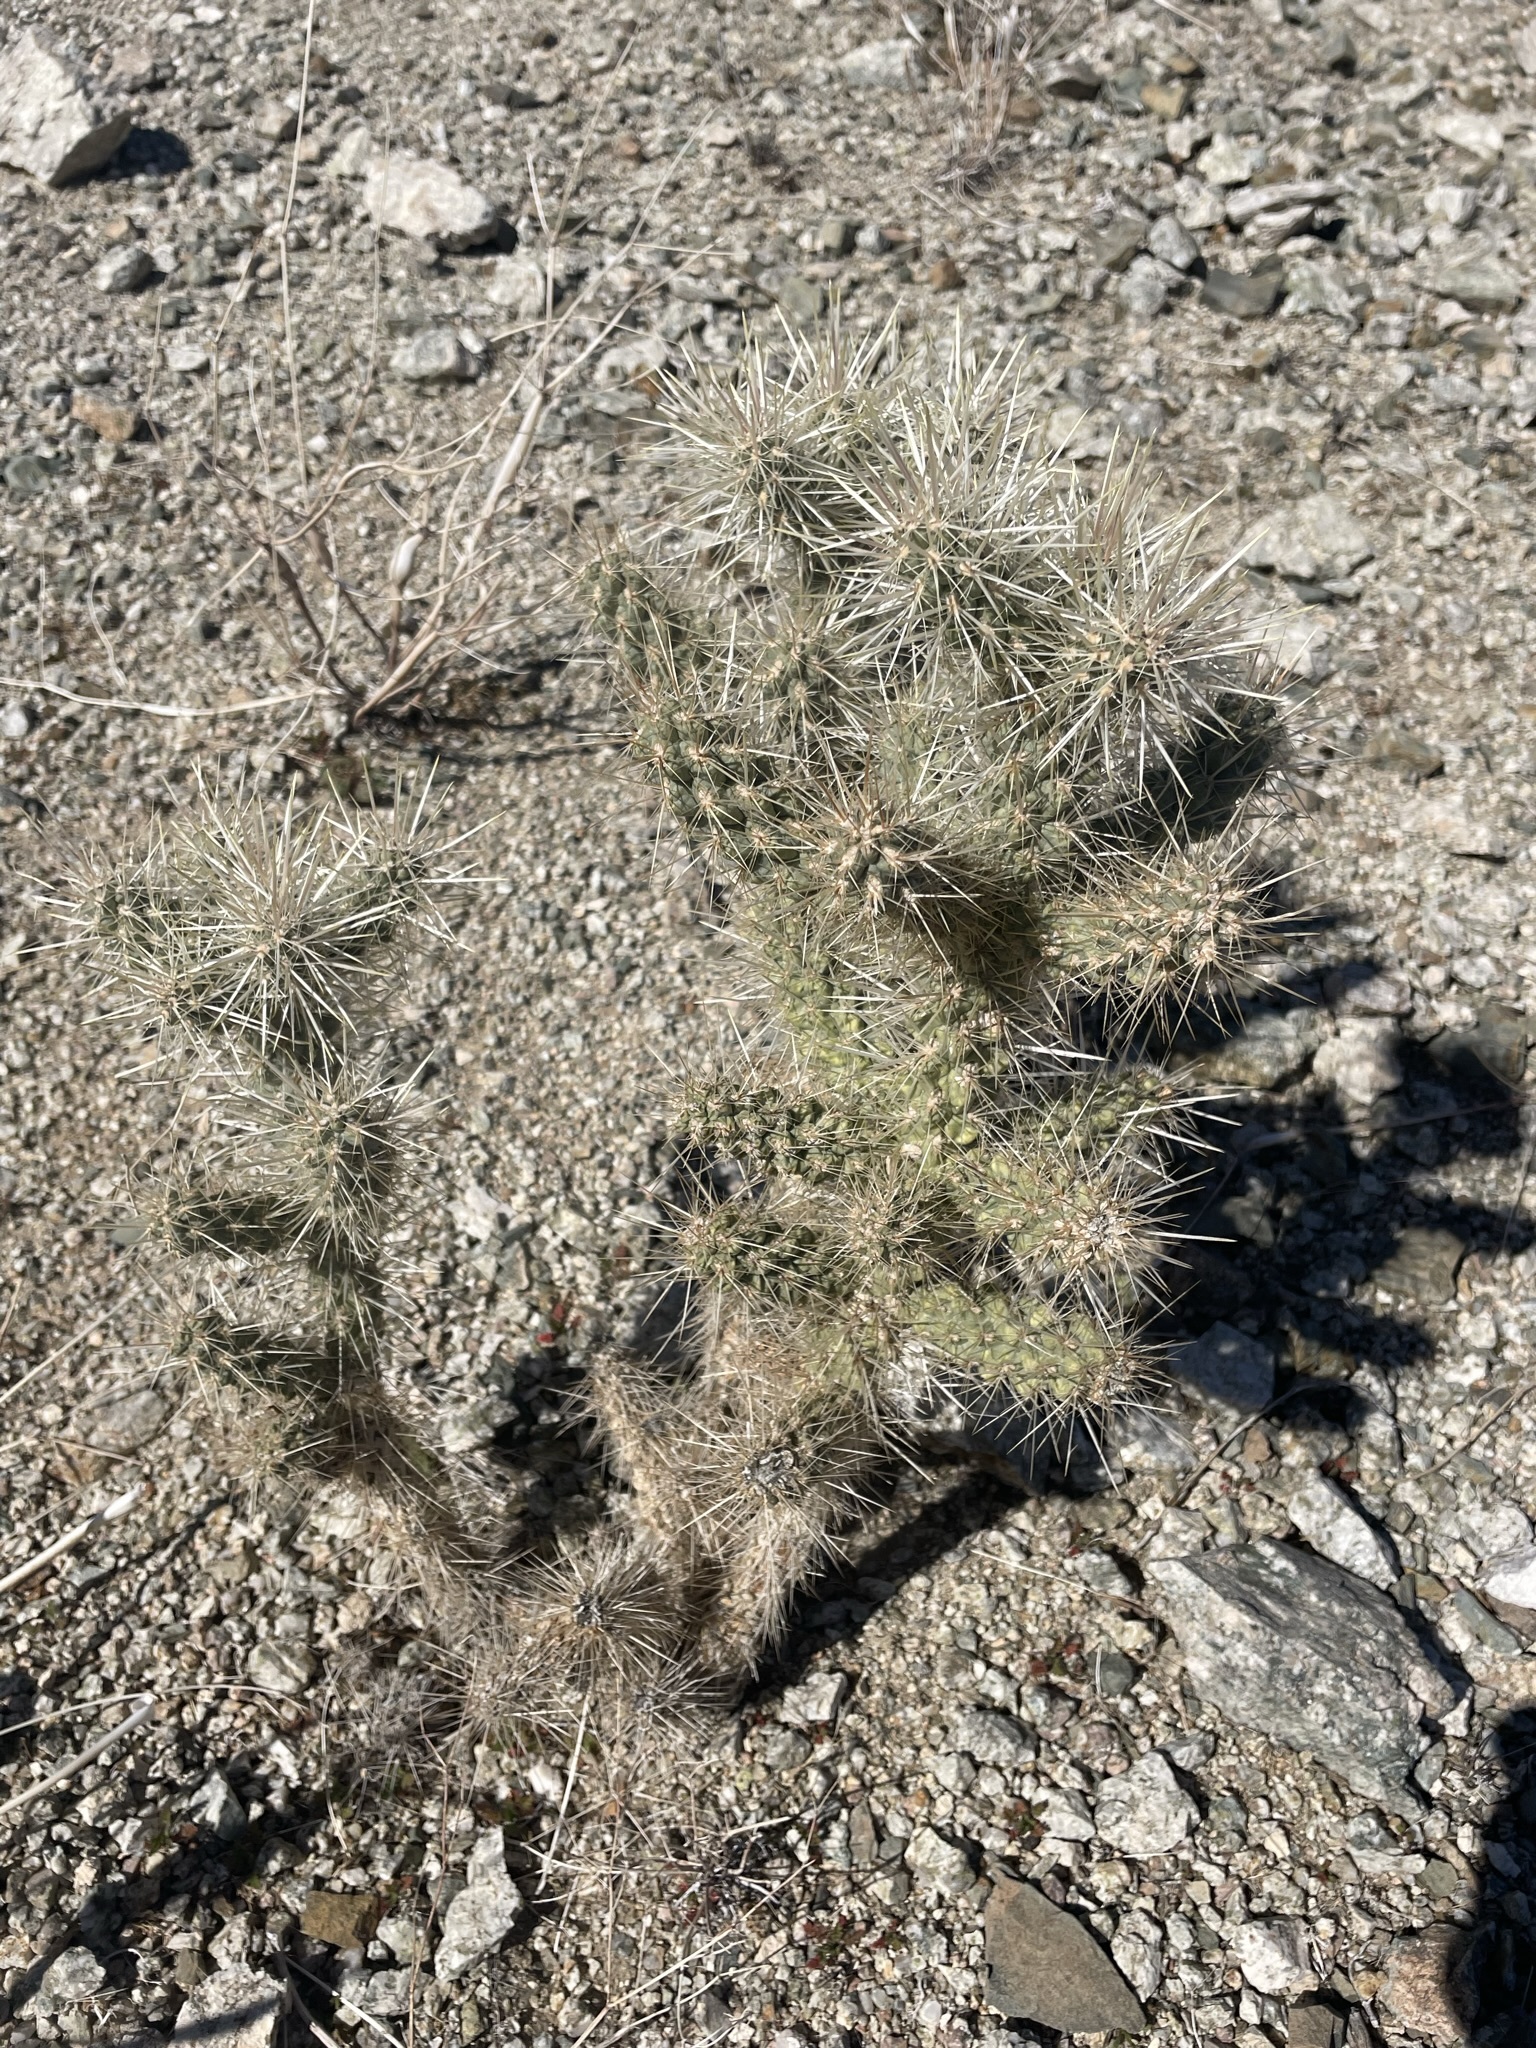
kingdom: Plantae
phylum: Tracheophyta
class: Magnoliopsida
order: Caryophyllales
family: Cactaceae
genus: Cylindropuntia
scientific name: Cylindropuntia echinocarpa
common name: Ground cholla
